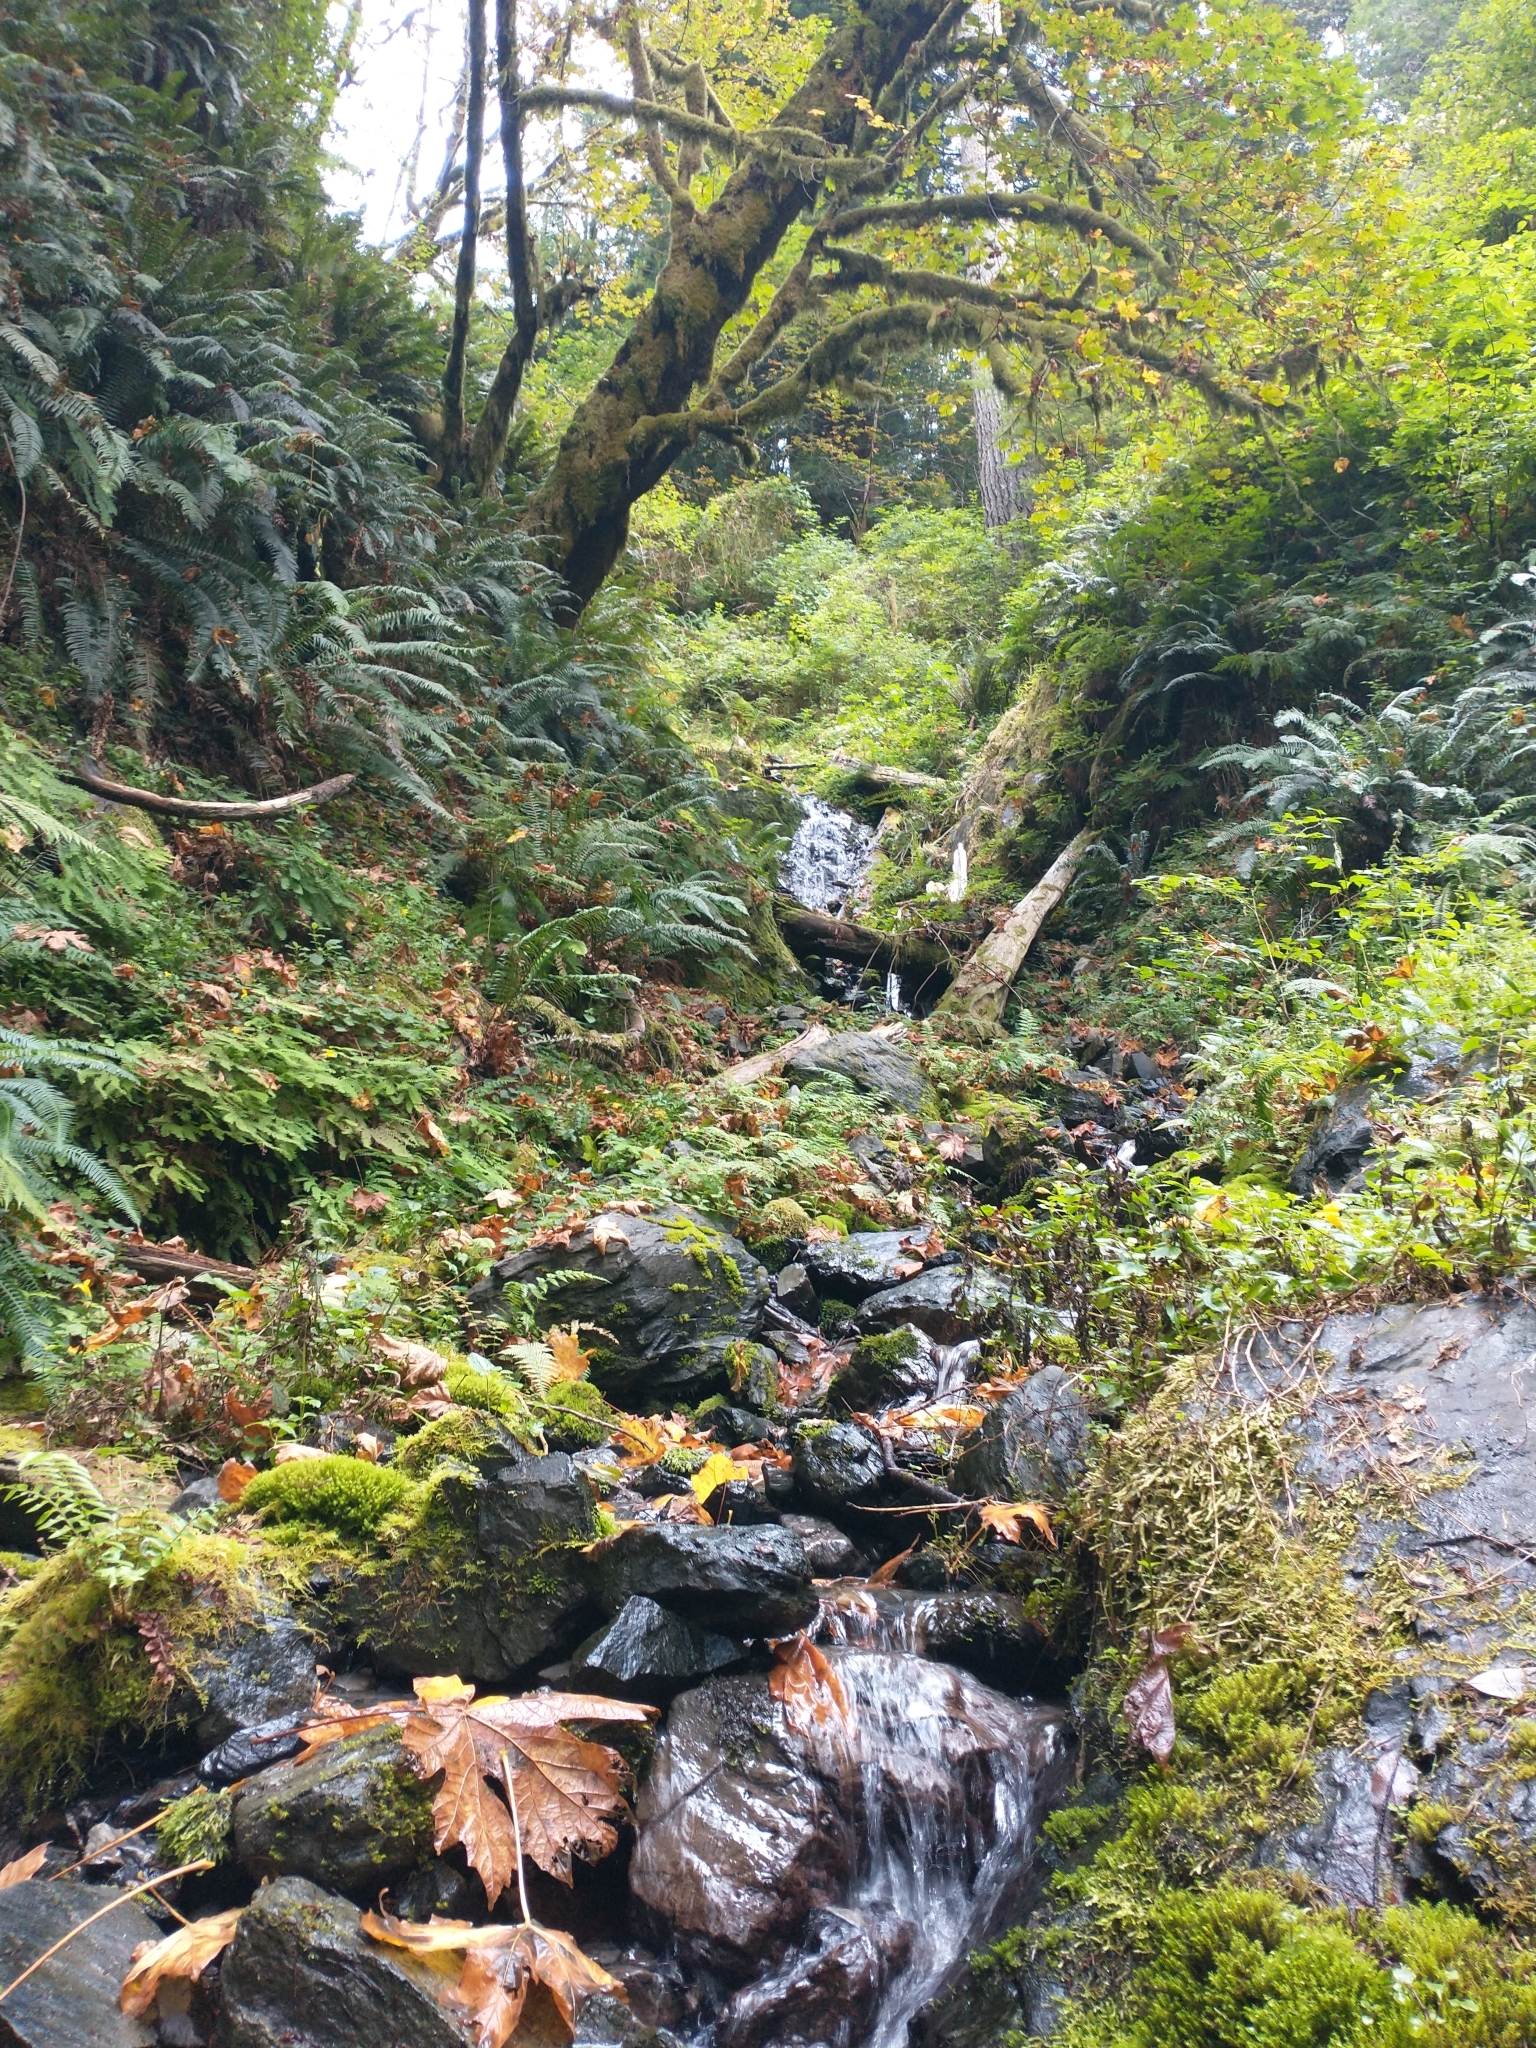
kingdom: Plantae
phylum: Tracheophyta
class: Magnoliopsida
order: Sapindales
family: Sapindaceae
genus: Acer
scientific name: Acer macrophyllum
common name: Oregon maple
